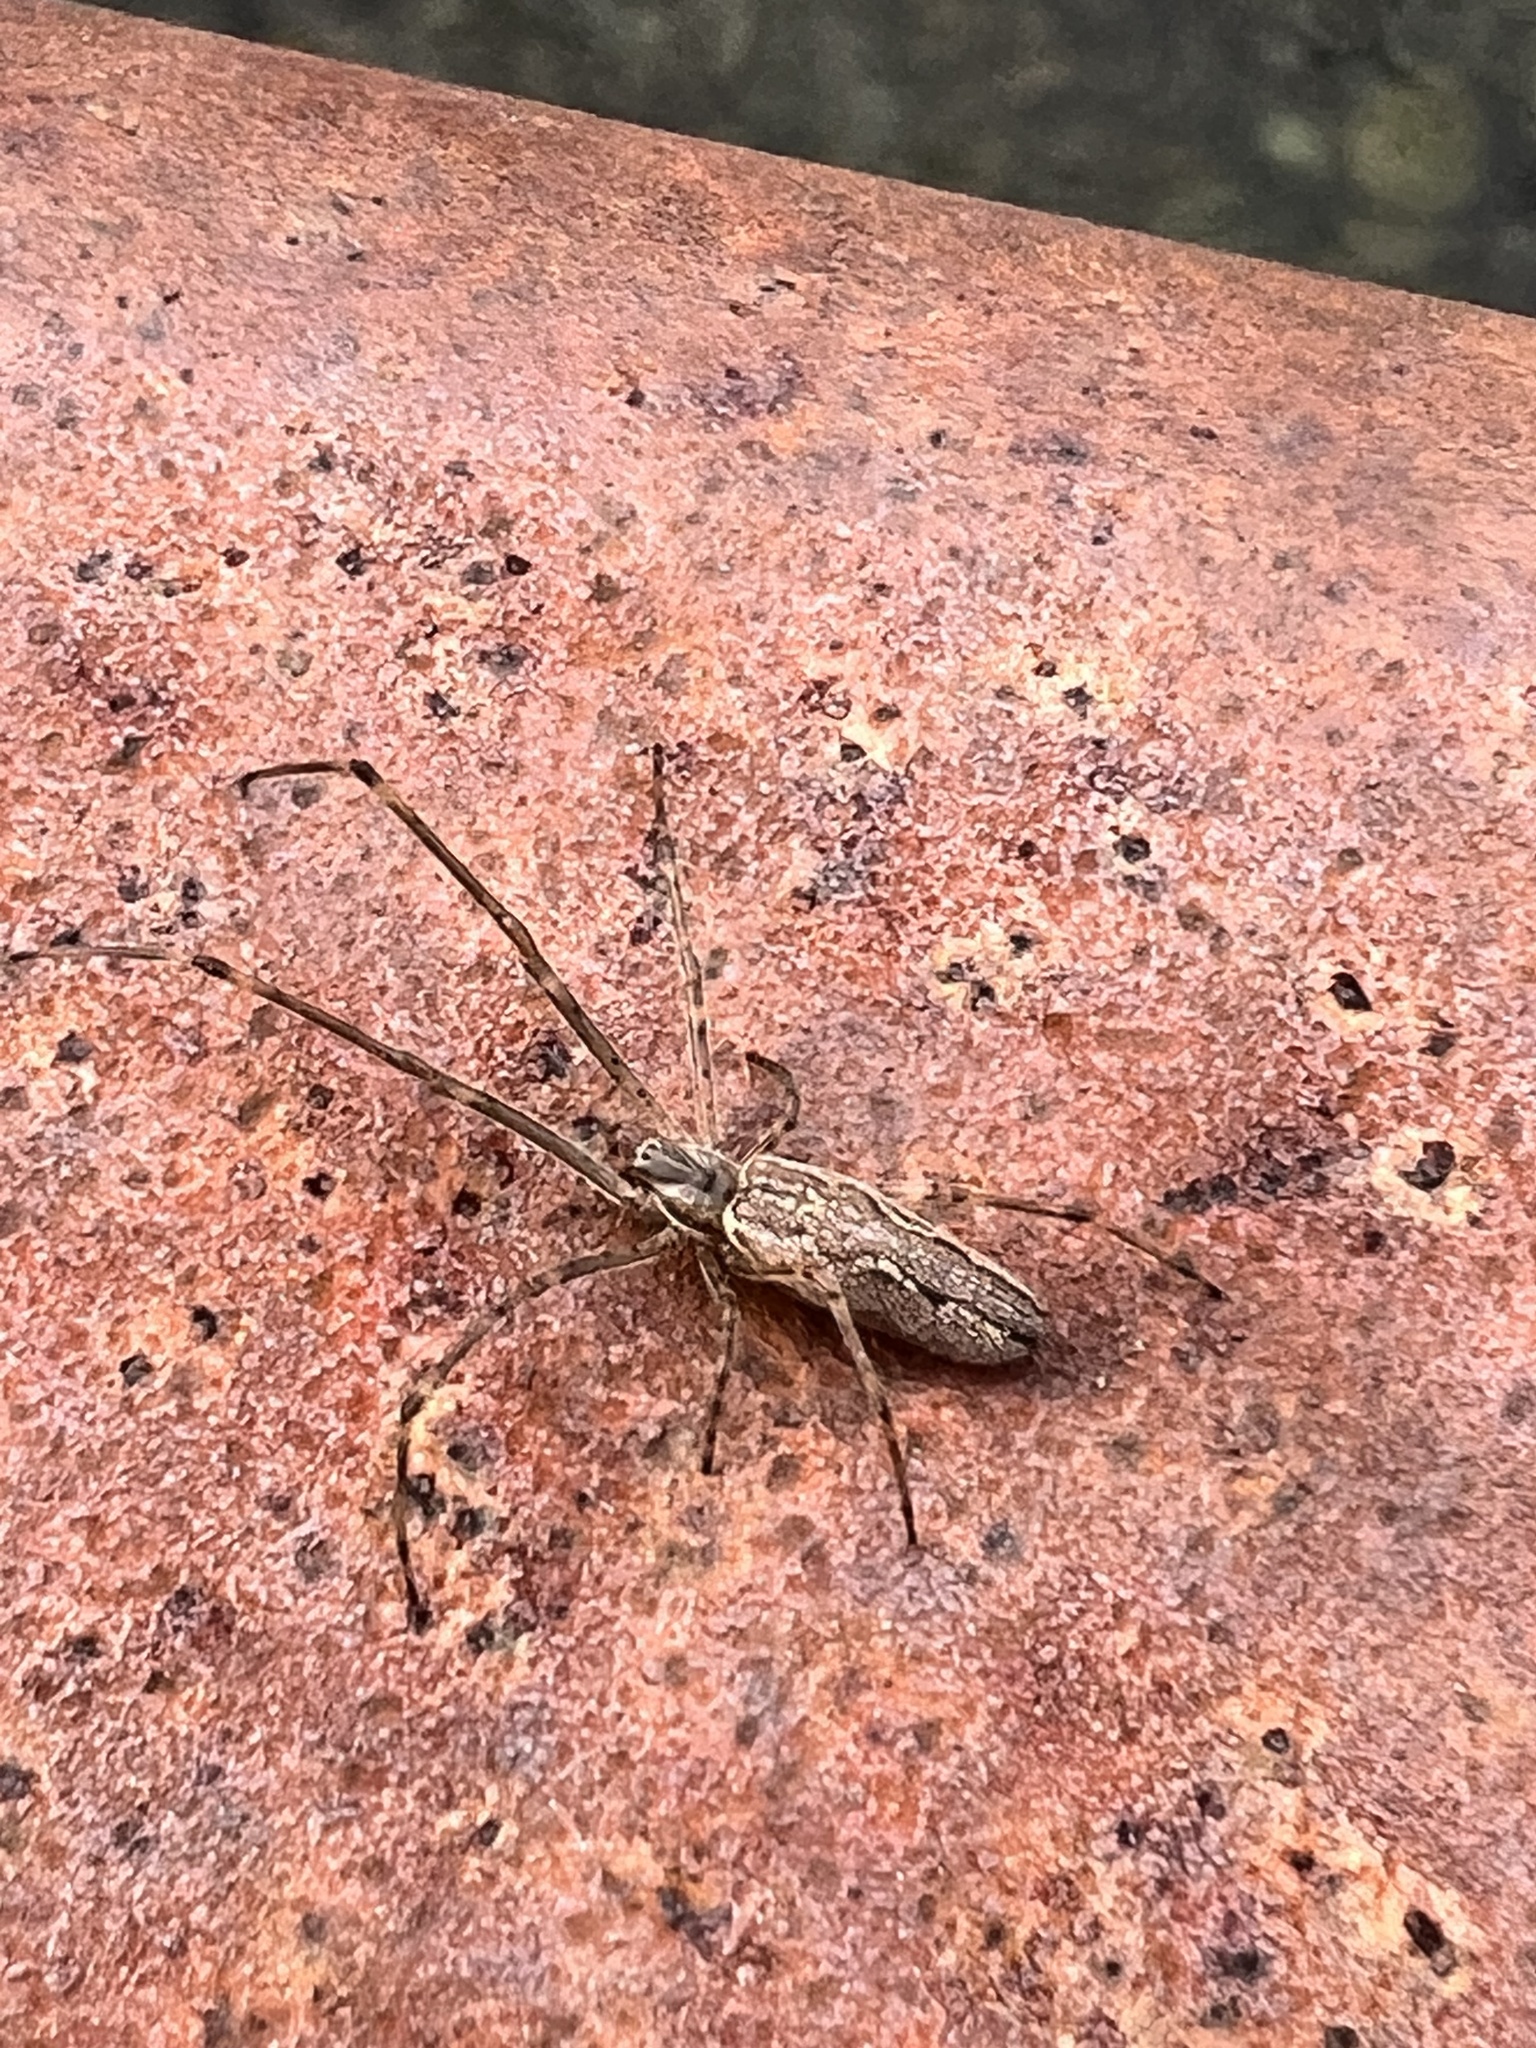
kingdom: Animalia
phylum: Arthropoda
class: Arachnida
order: Araneae
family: Tetragnathidae
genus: Tetragnatha
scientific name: Tetragnatha versicolor
